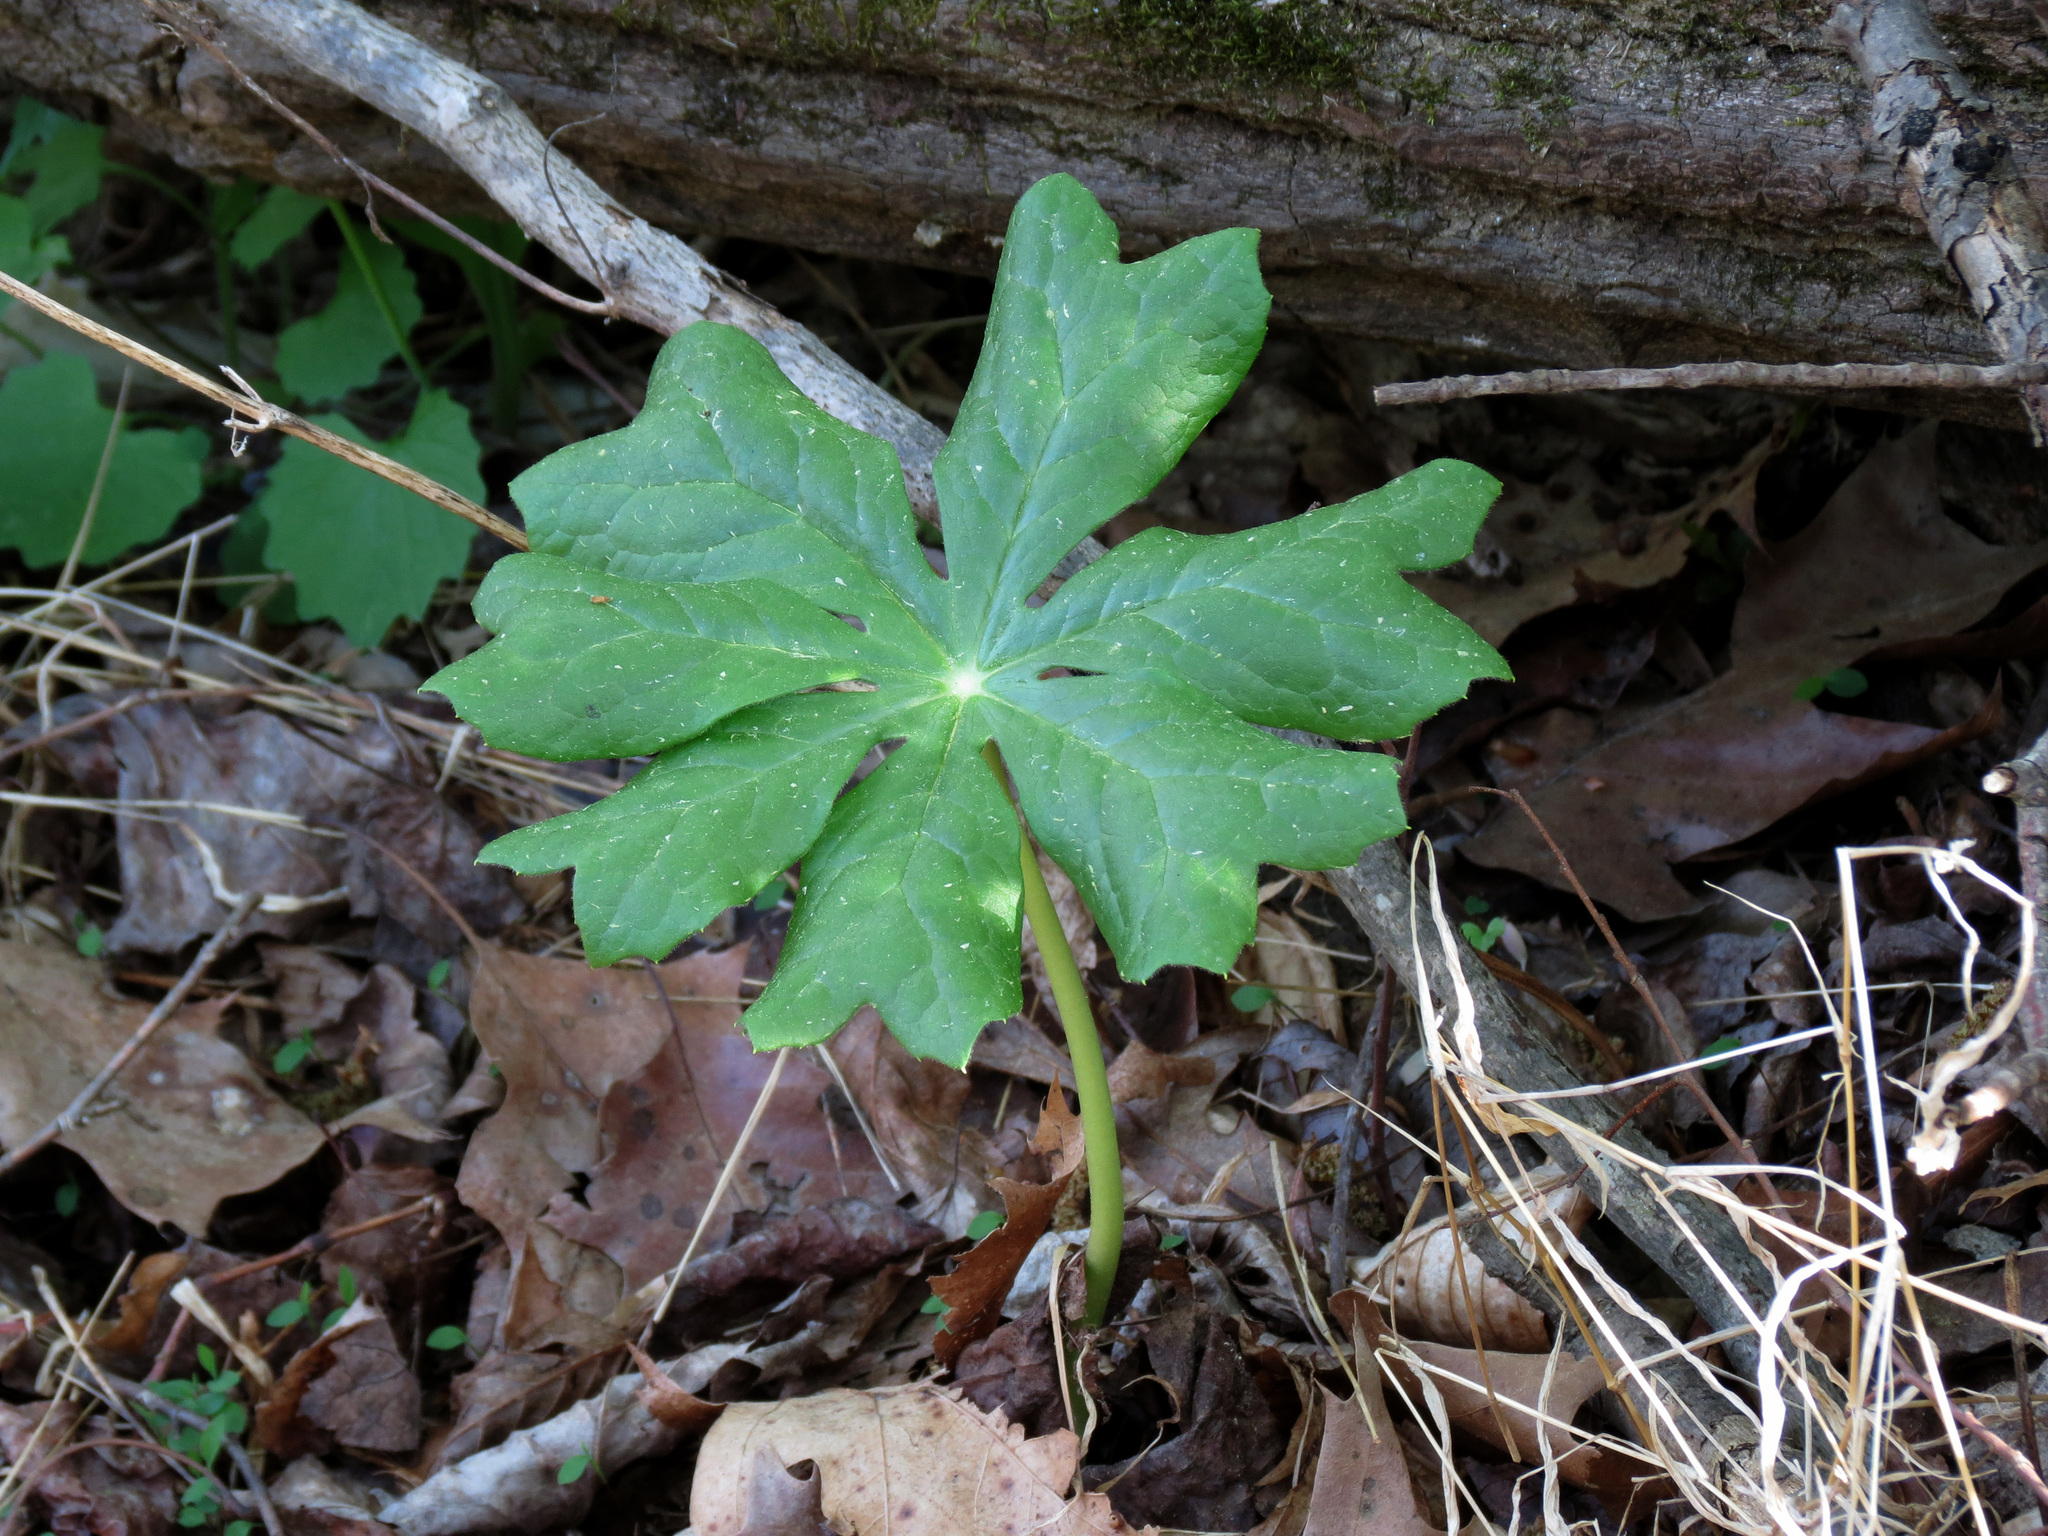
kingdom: Plantae
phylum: Tracheophyta
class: Magnoliopsida
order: Ranunculales
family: Berberidaceae
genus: Podophyllum
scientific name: Podophyllum peltatum
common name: Wild mandrake
